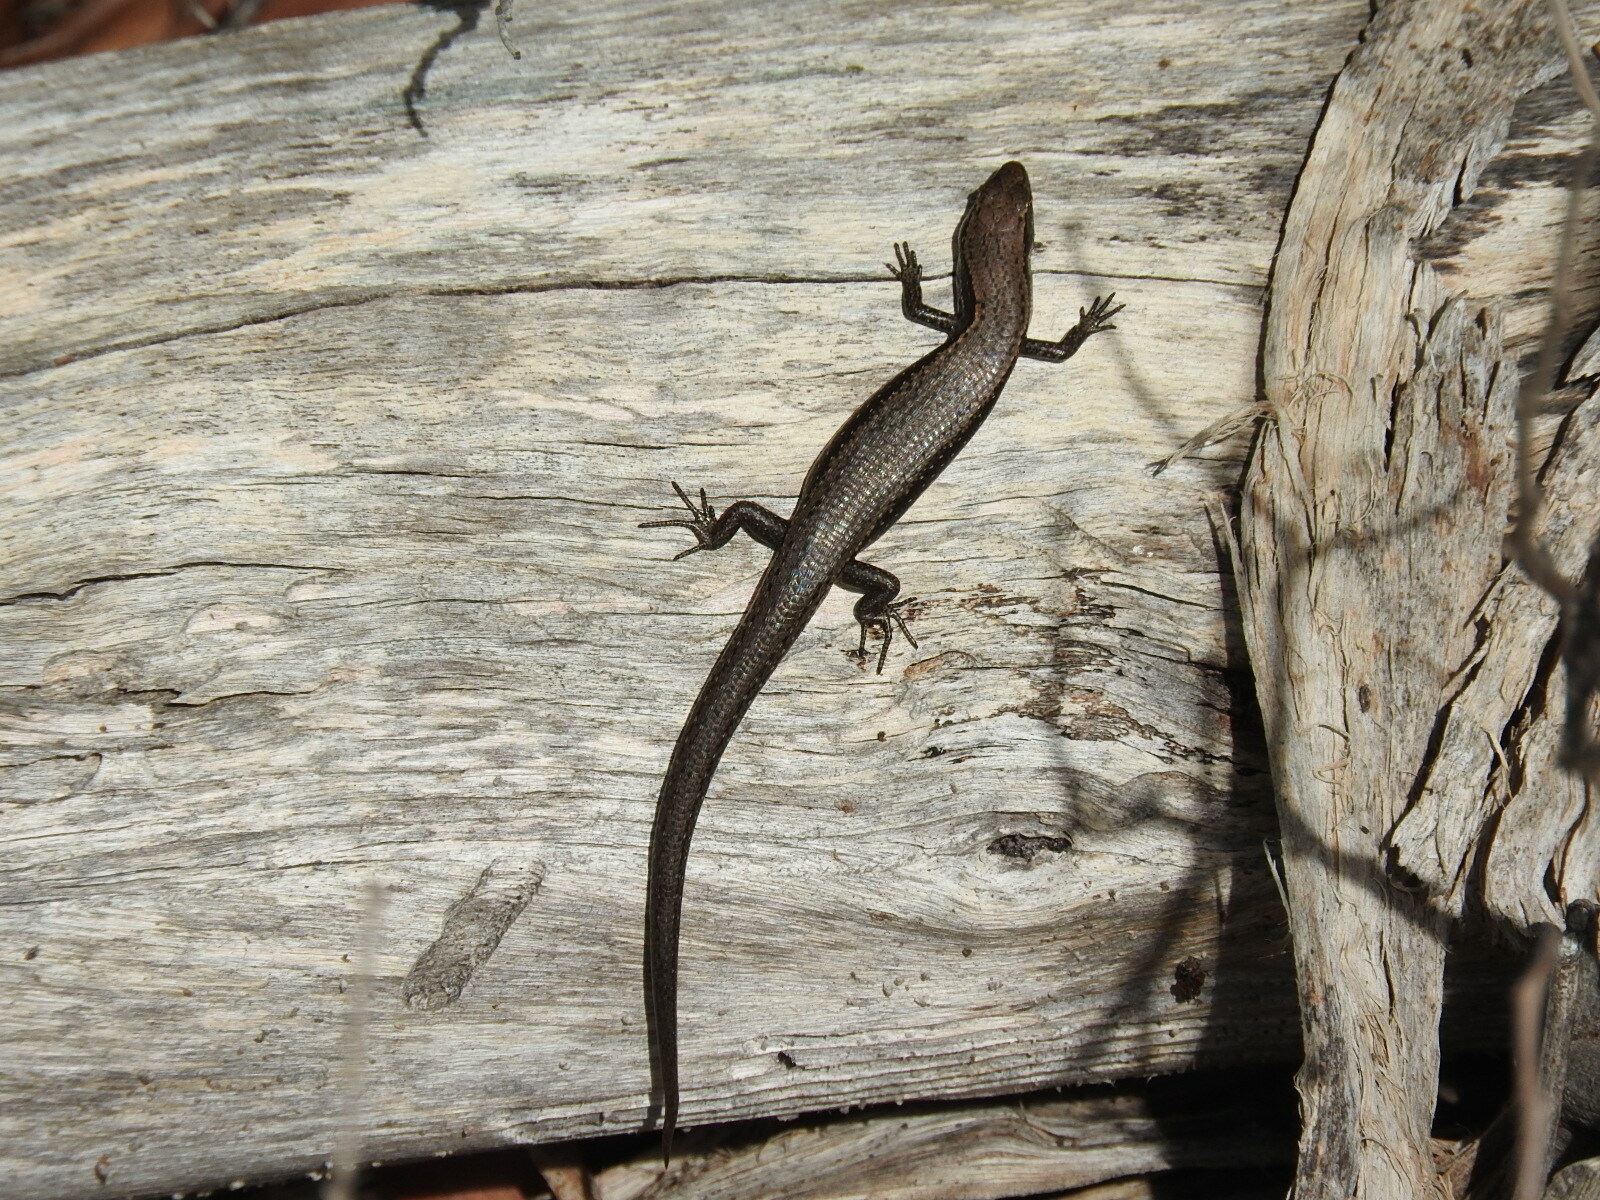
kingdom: Animalia
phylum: Chordata
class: Squamata
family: Scincidae
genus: Carinascincus
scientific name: Carinascincus metallicus
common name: Metallic cool-skink
